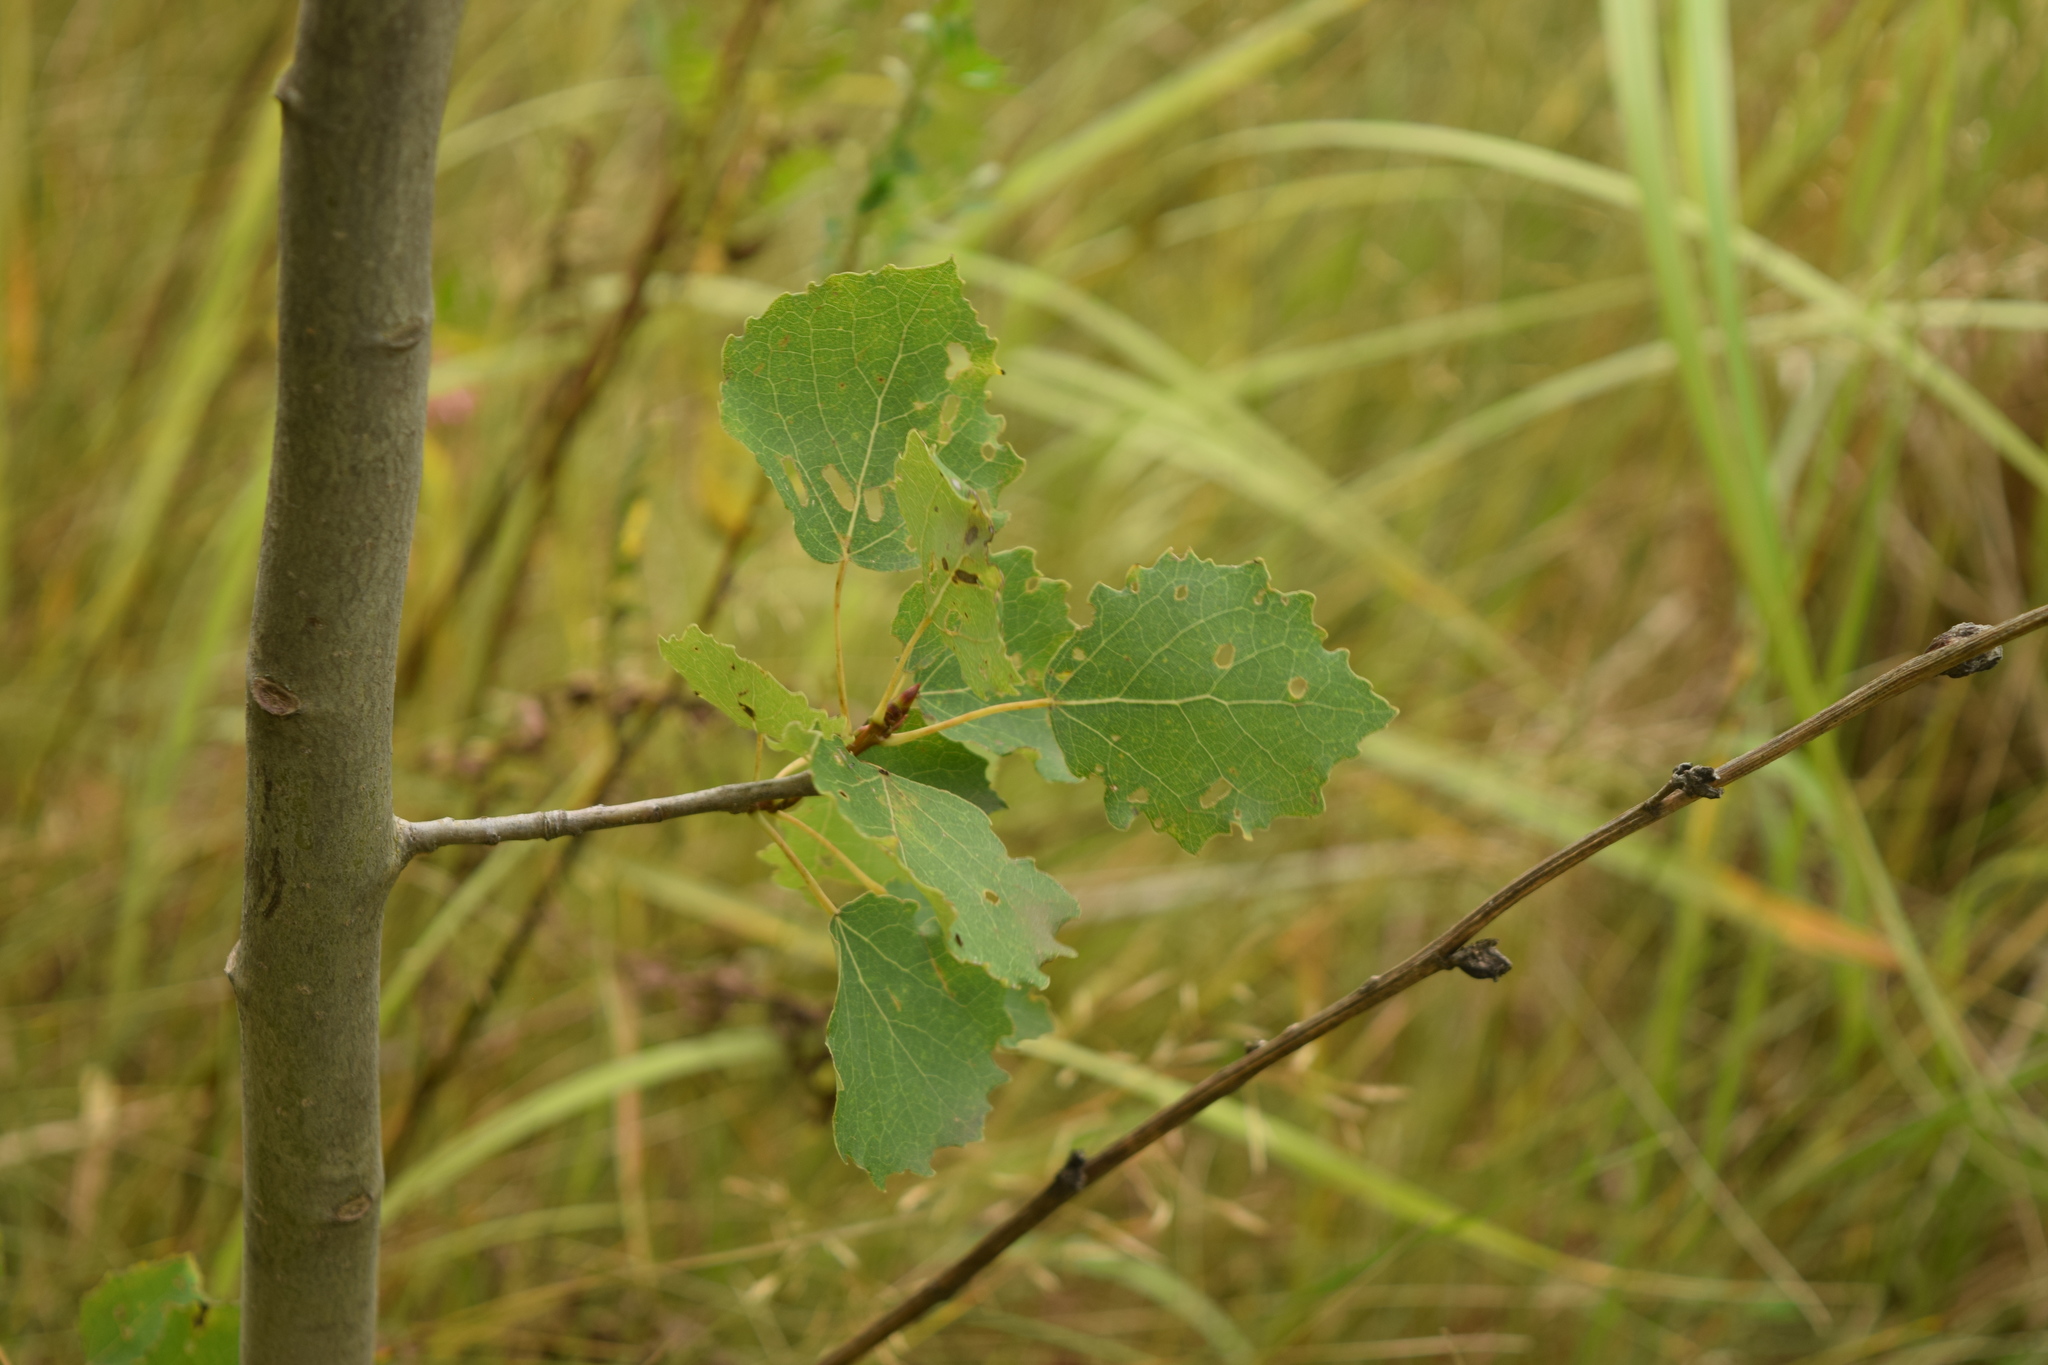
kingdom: Plantae
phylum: Tracheophyta
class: Magnoliopsida
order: Malpighiales
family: Salicaceae
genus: Populus
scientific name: Populus tremula
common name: European aspen
